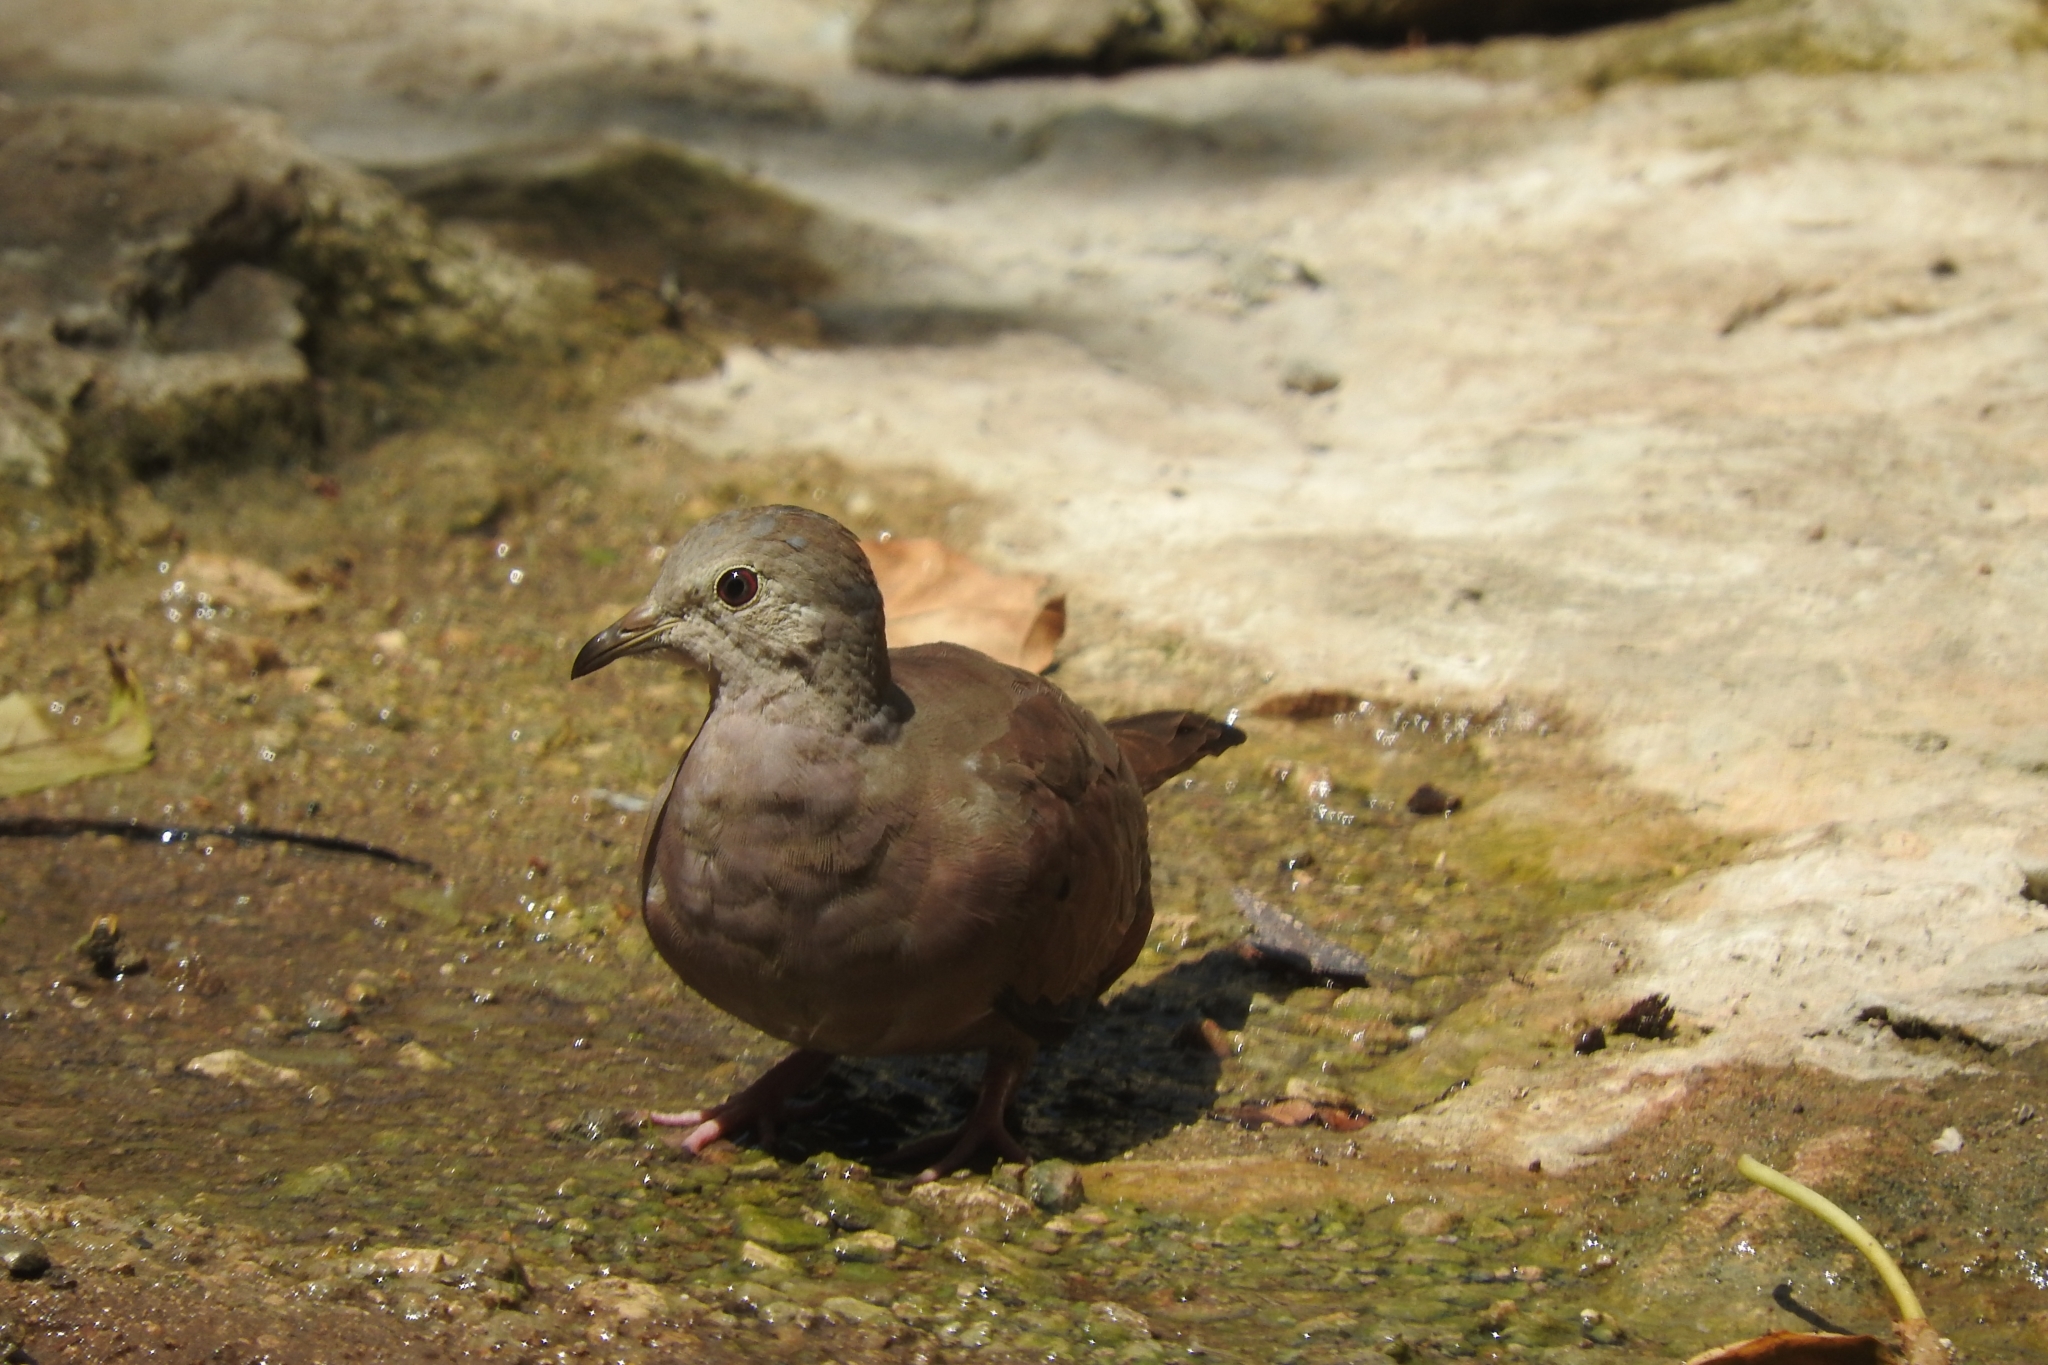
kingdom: Animalia
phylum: Chordata
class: Aves
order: Columbiformes
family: Columbidae
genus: Columbina
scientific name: Columbina talpacoti
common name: Ruddy ground dove
